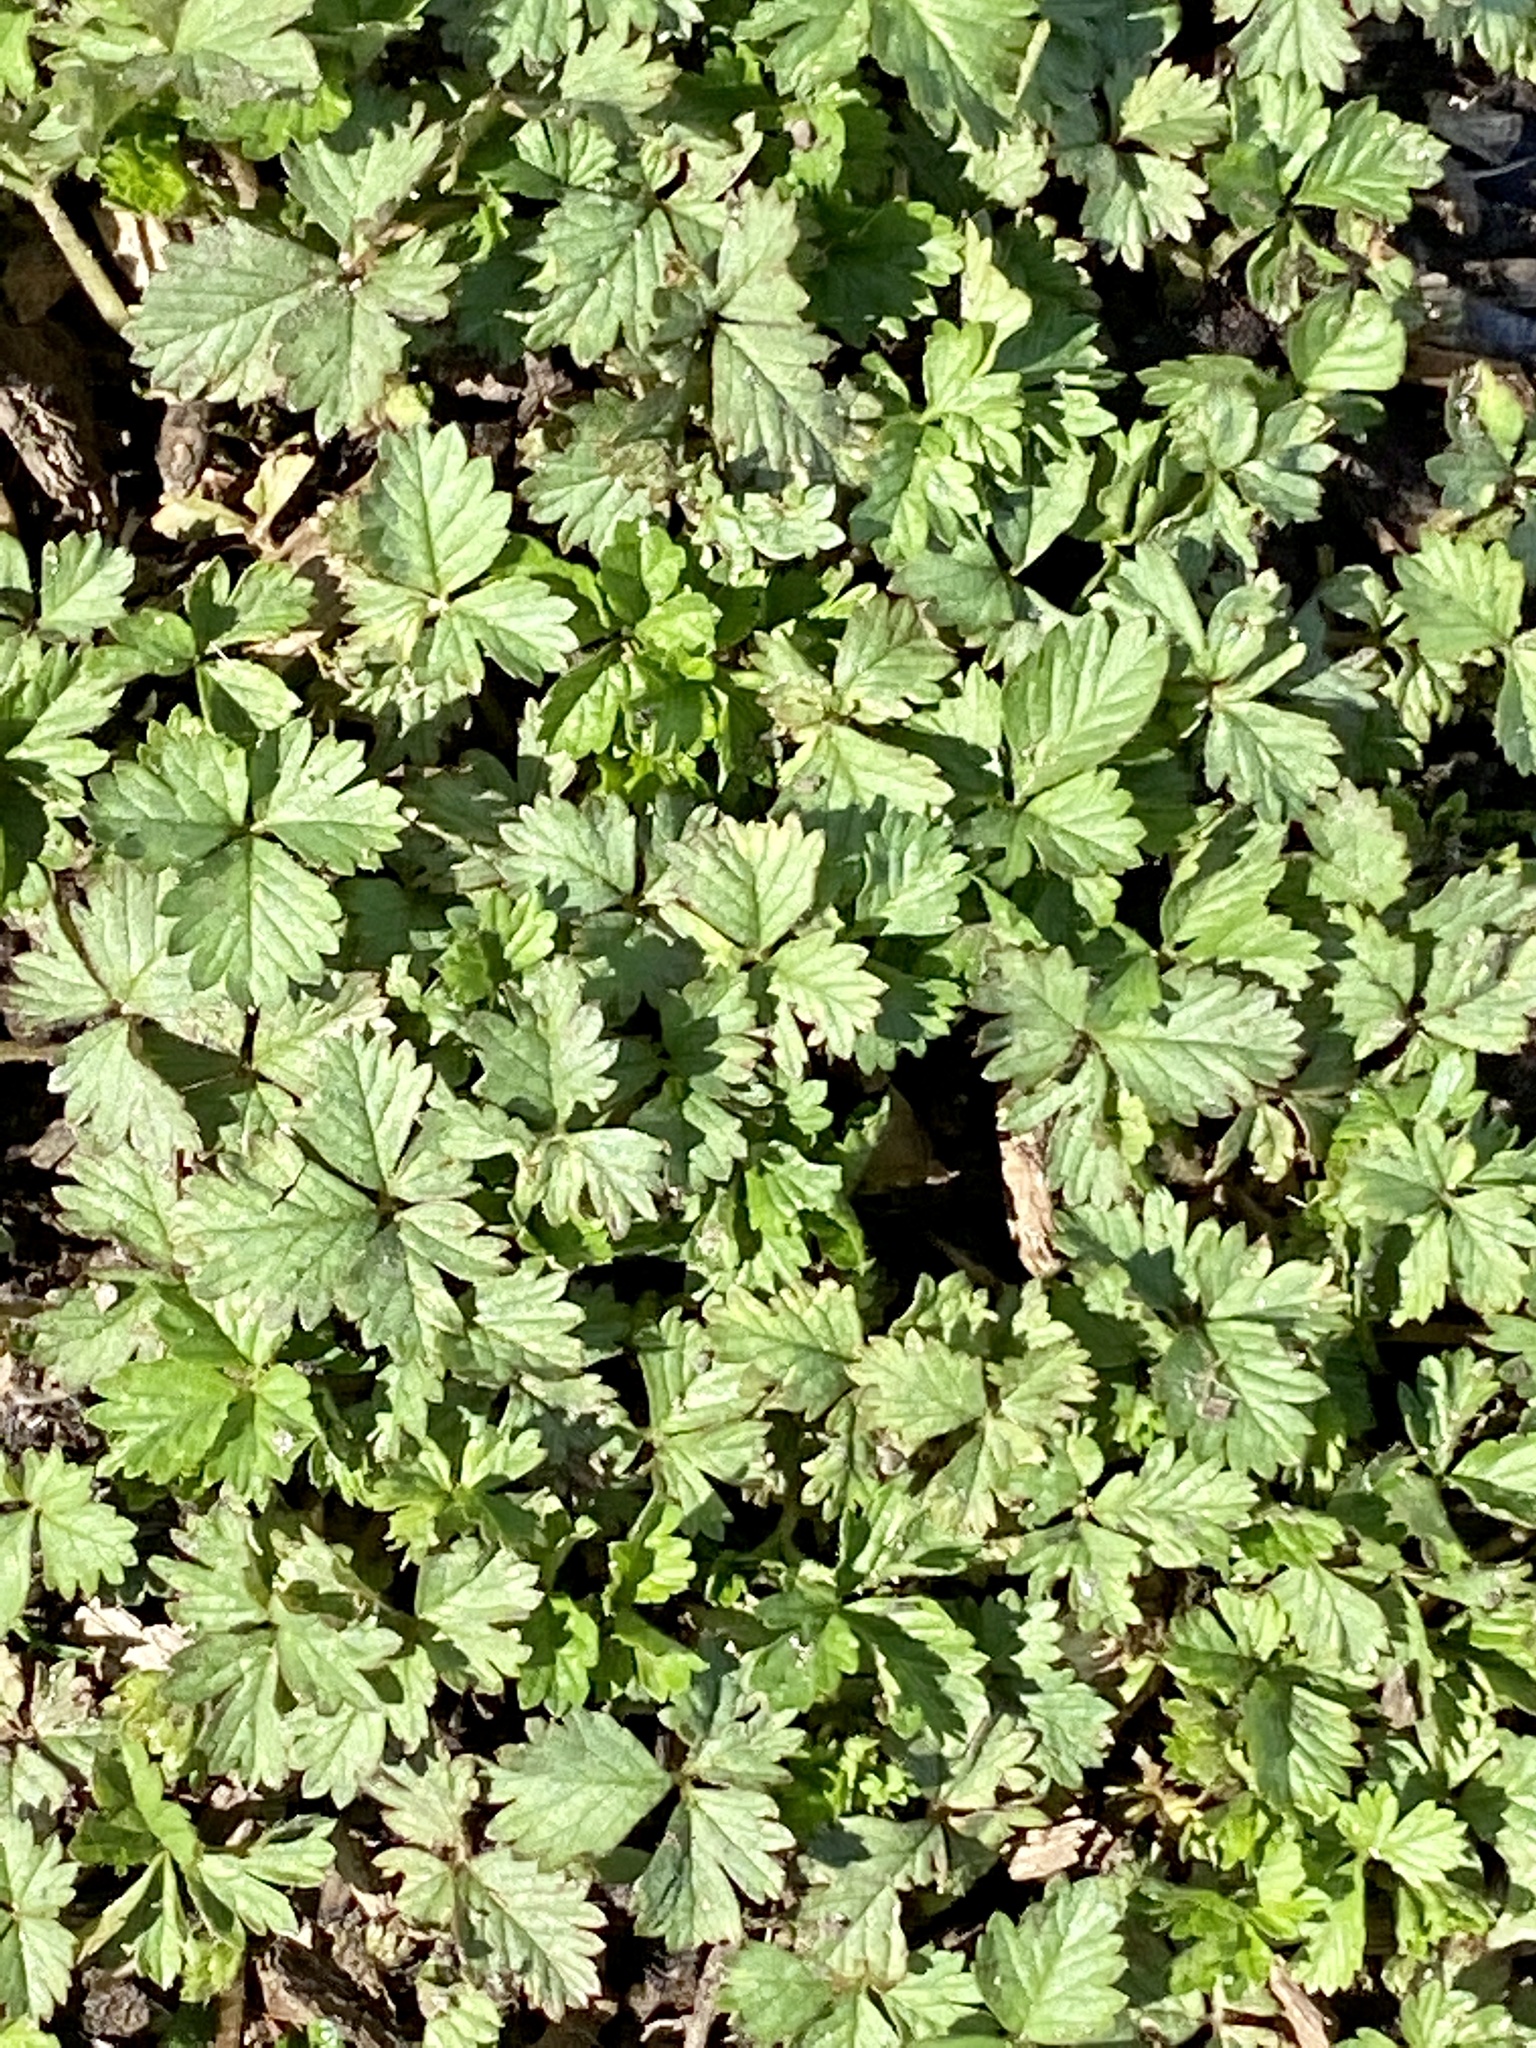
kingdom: Plantae
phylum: Tracheophyta
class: Magnoliopsida
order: Rosales
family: Rosaceae
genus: Potentilla
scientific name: Potentilla indica
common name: Yellow-flowered strawberry
